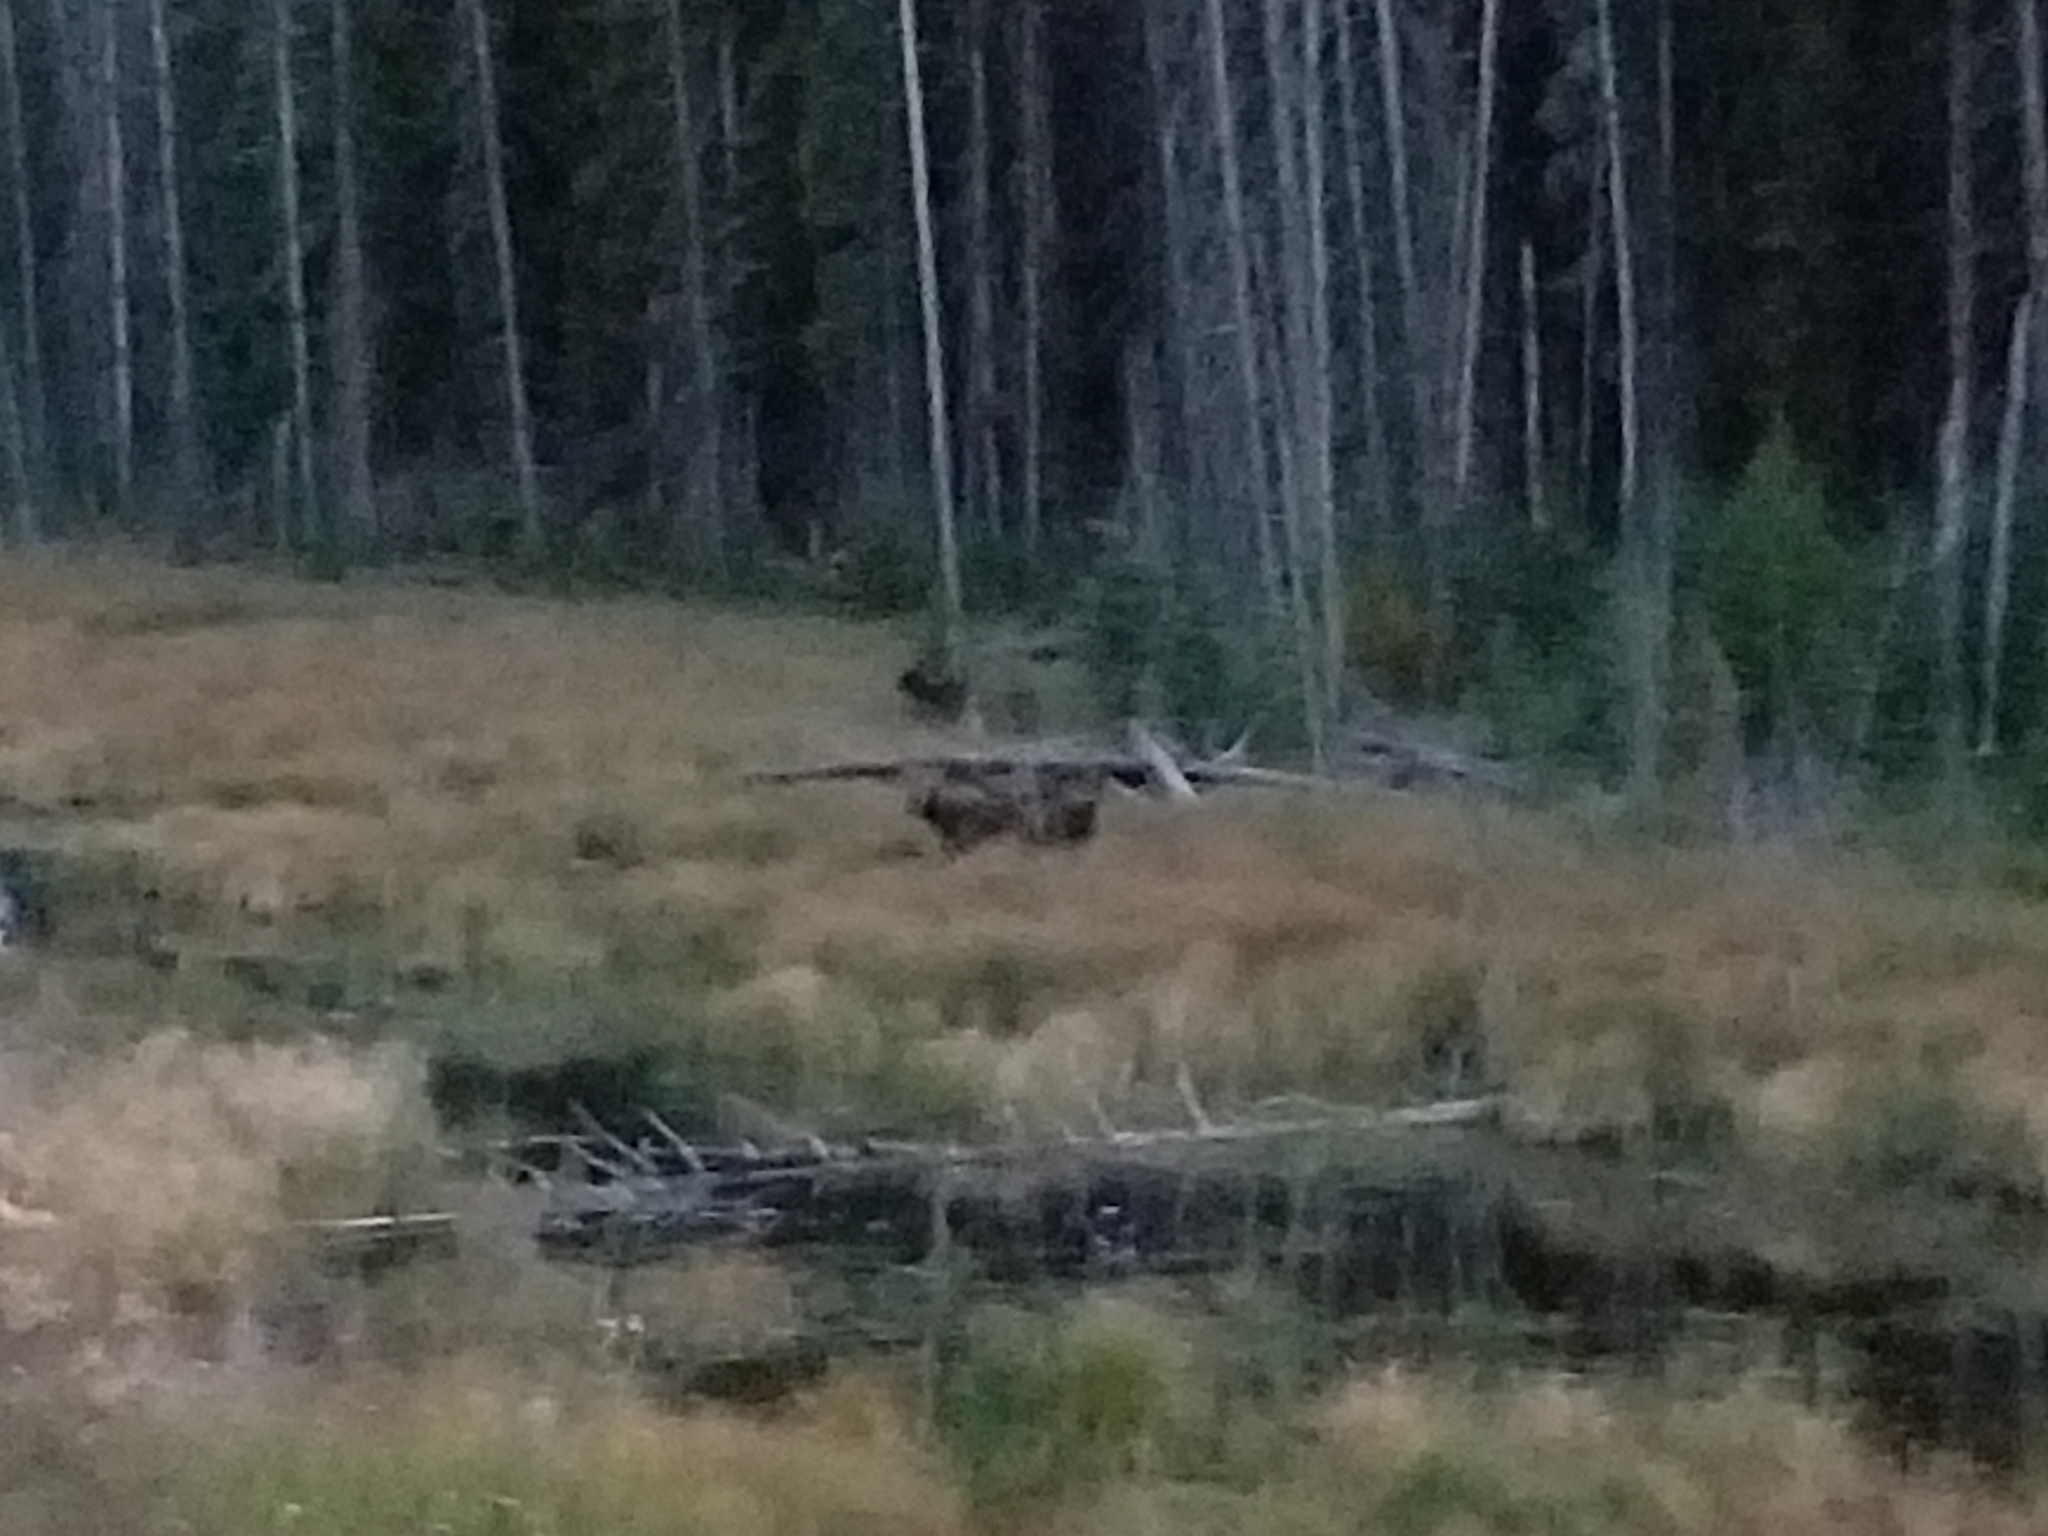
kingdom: Animalia
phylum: Chordata
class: Mammalia
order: Artiodactyla
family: Cervidae
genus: Alces
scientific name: Alces alces
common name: Moose
